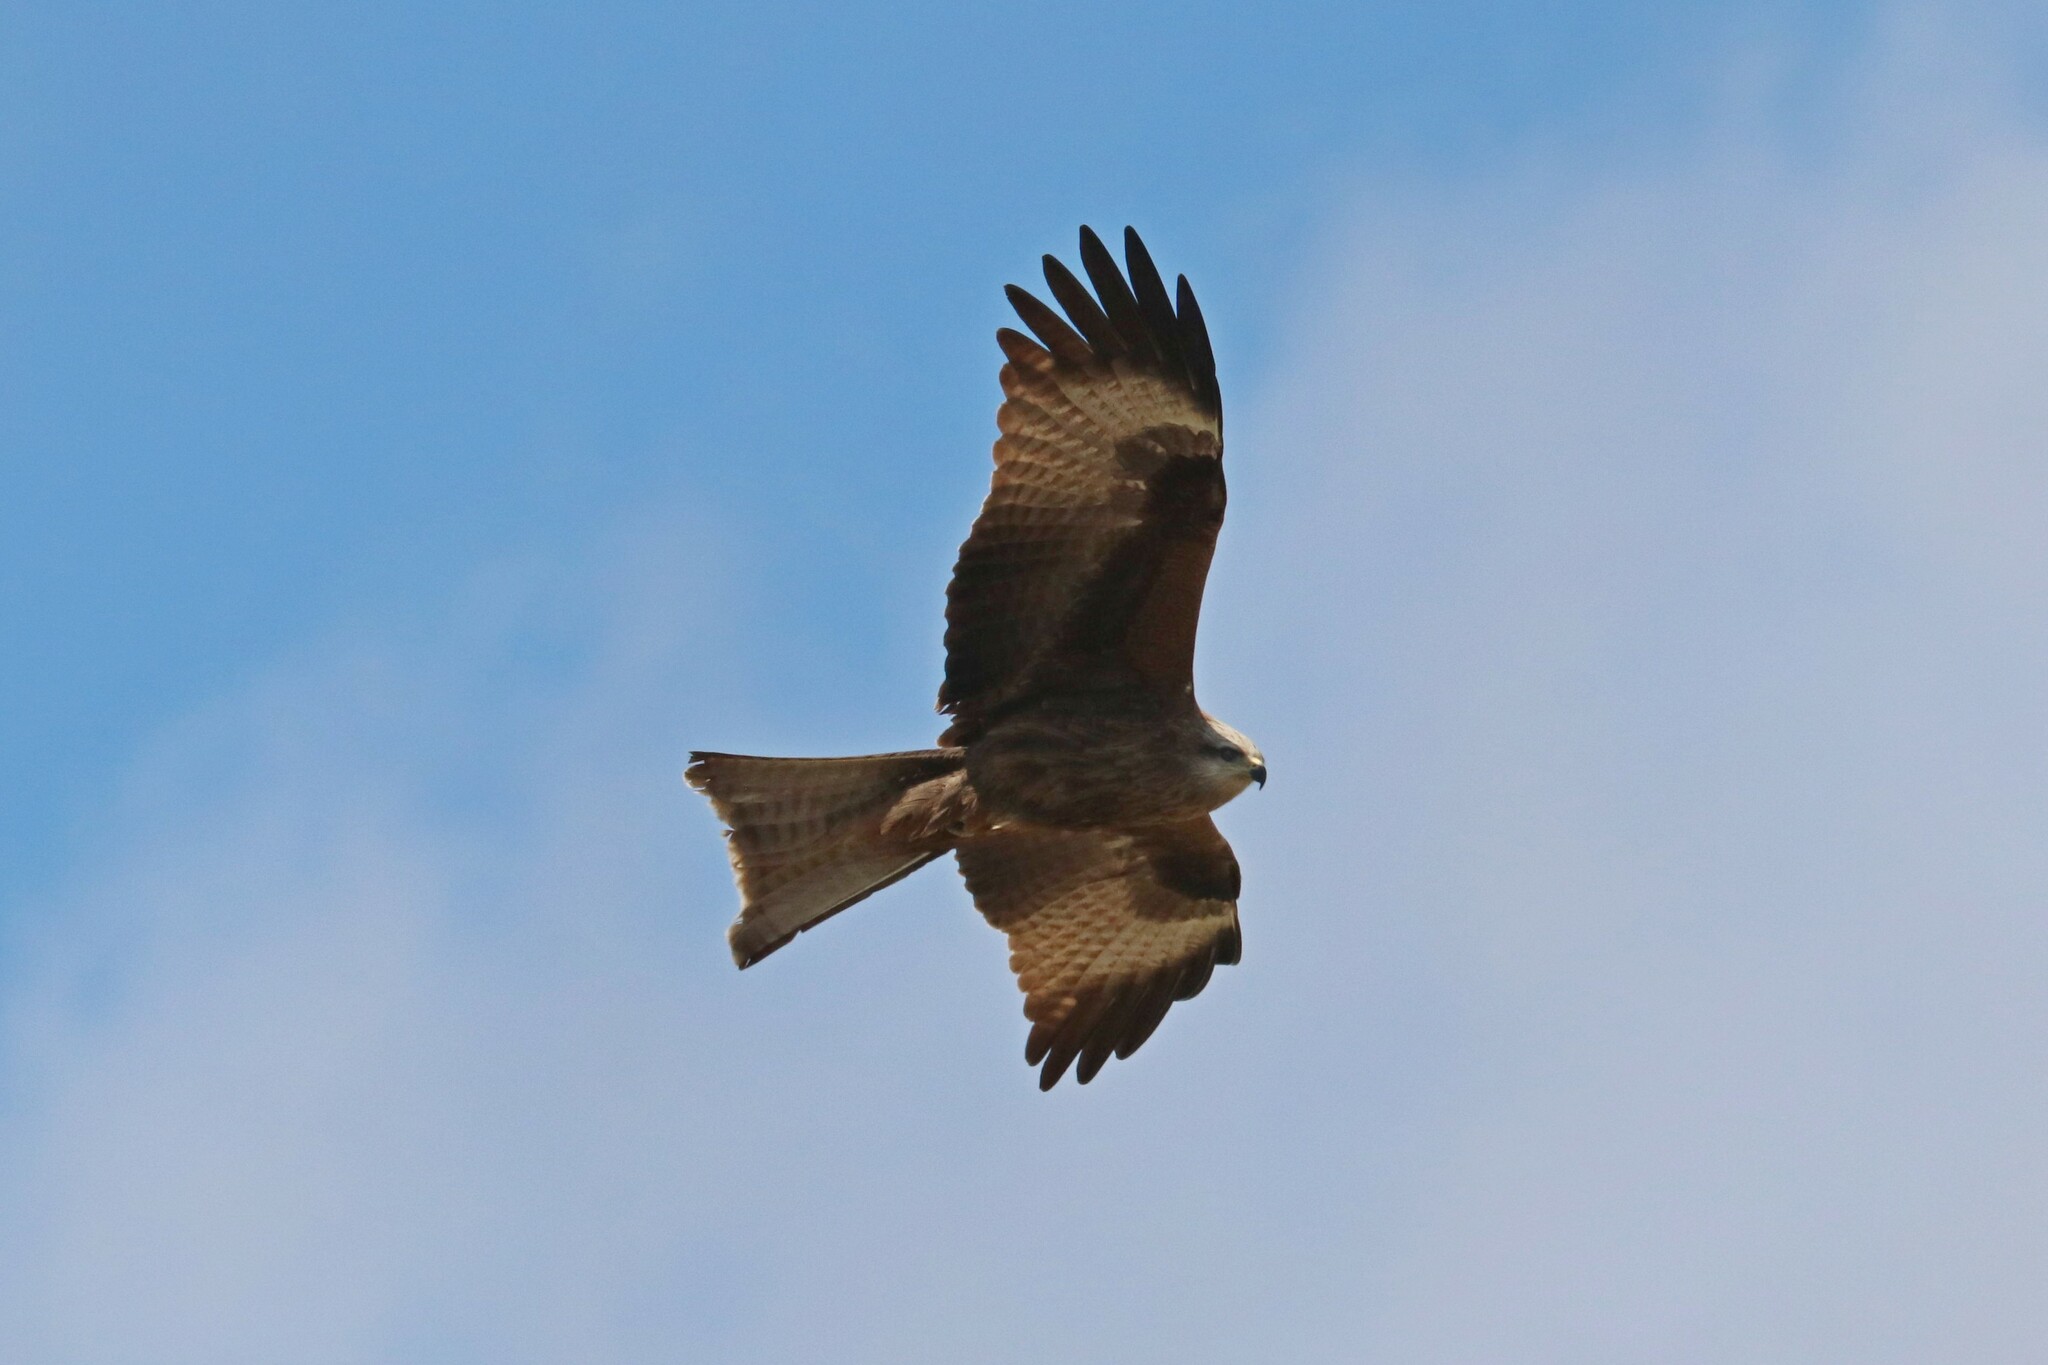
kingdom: Animalia
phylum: Chordata
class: Aves
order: Accipitriformes
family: Accipitridae
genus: Milvus
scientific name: Milvus migrans
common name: Black kite
